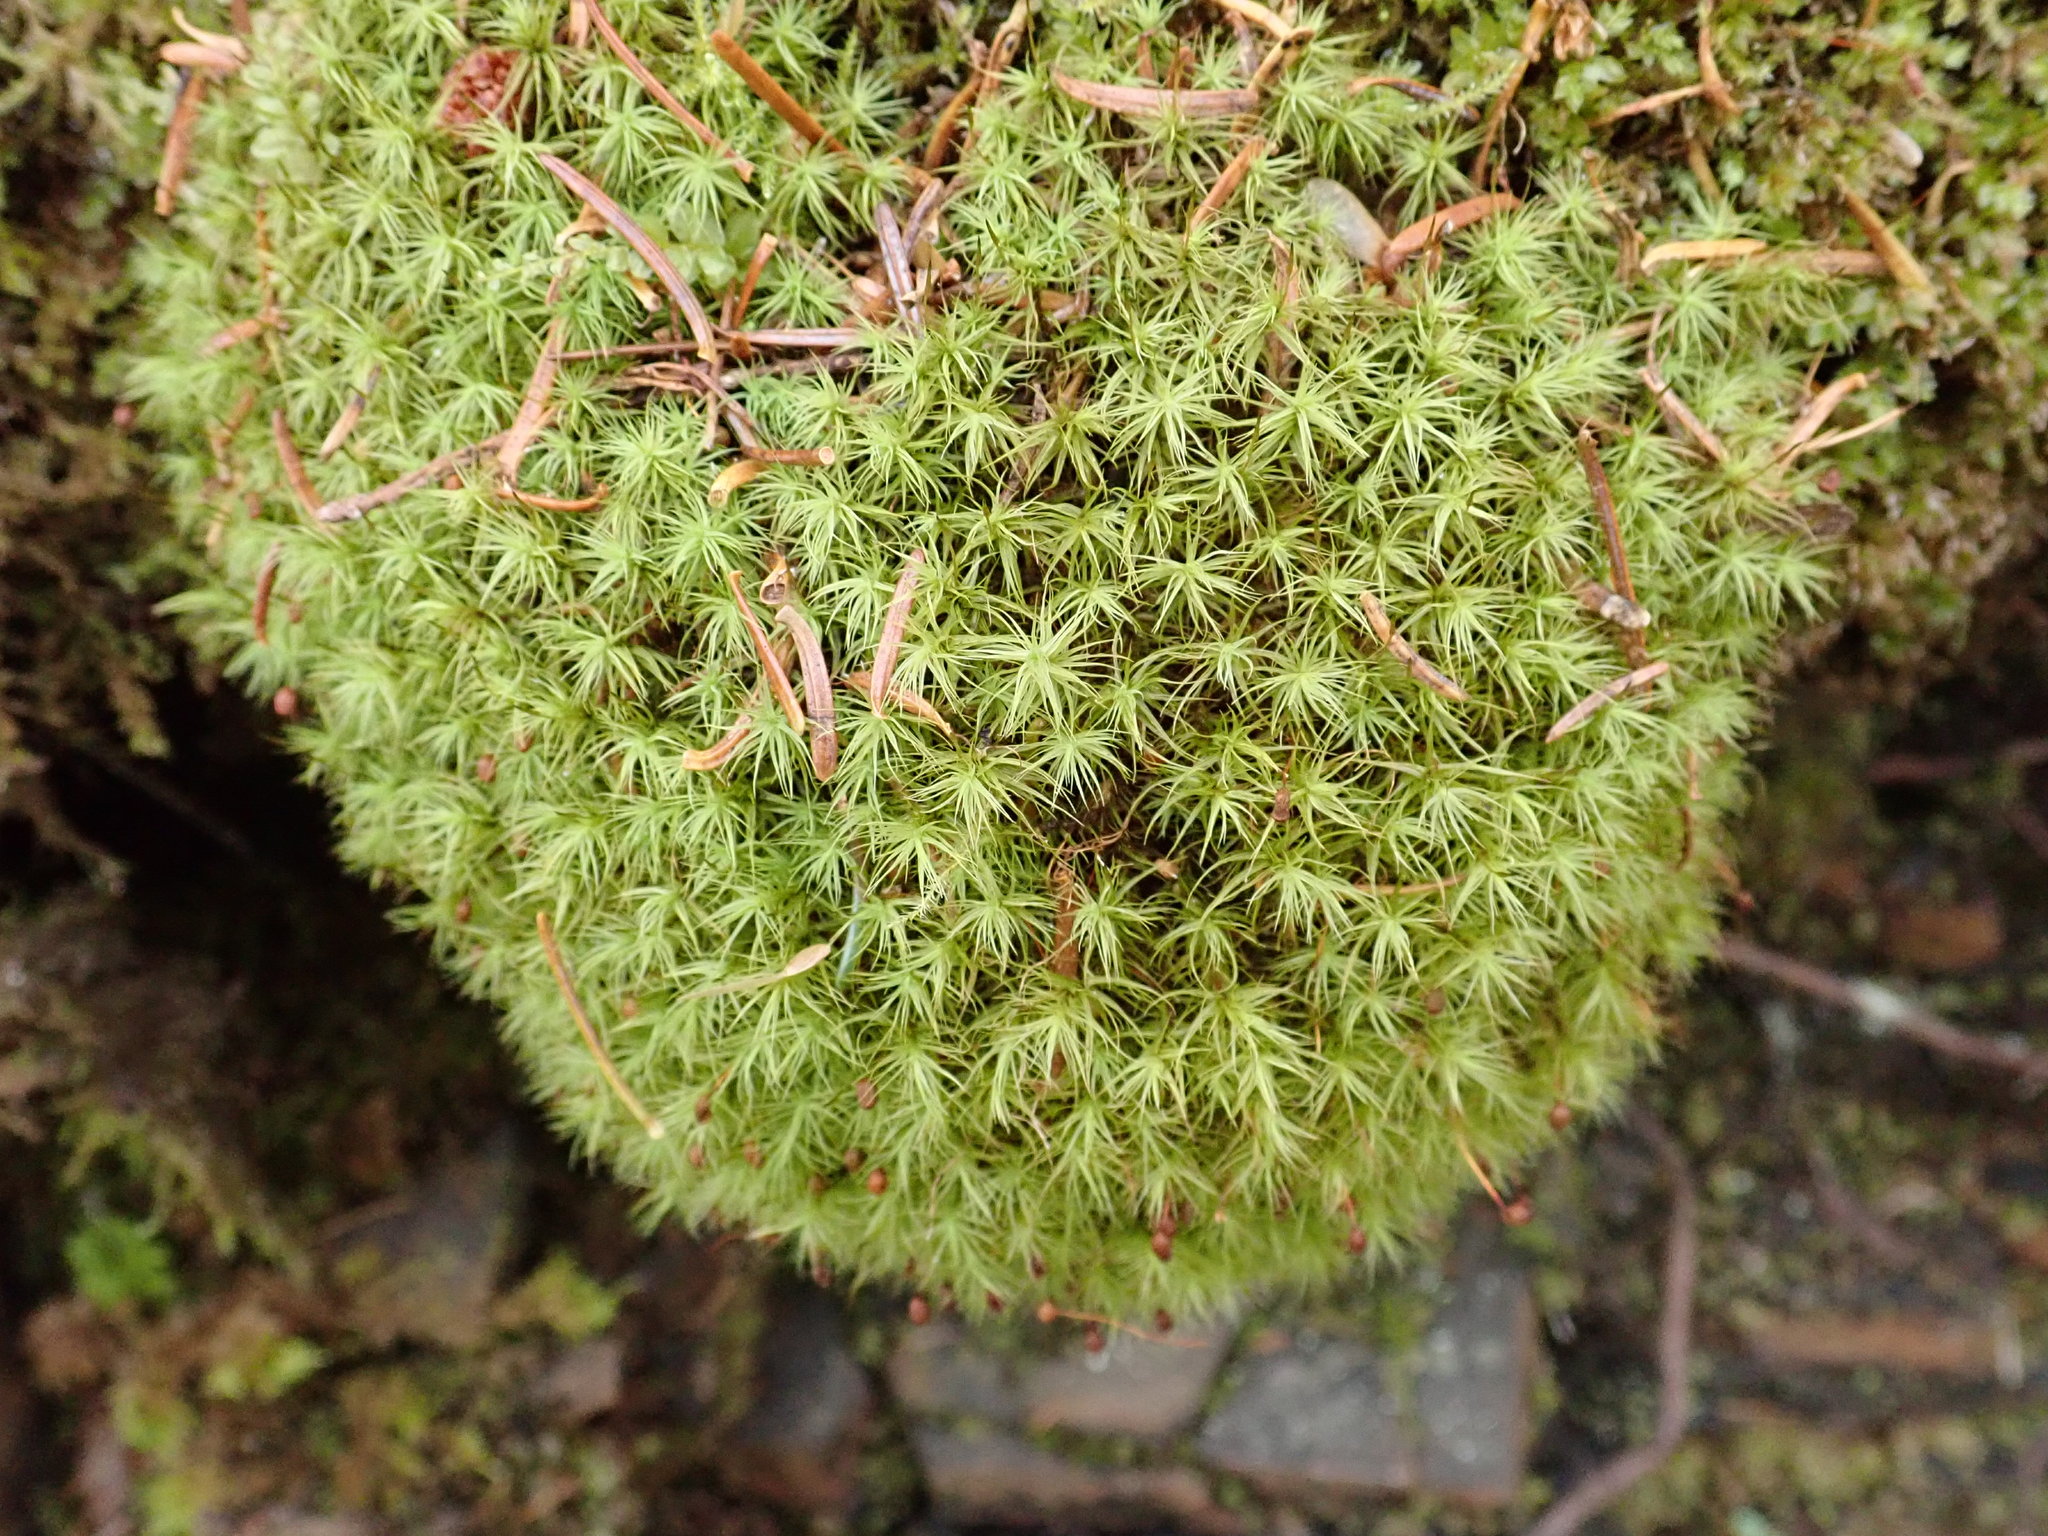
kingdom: Plantae
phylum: Bryophyta
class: Bryopsida
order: Bartramiales
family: Bartramiaceae
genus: Bartramia
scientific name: Bartramia ithyphylla
